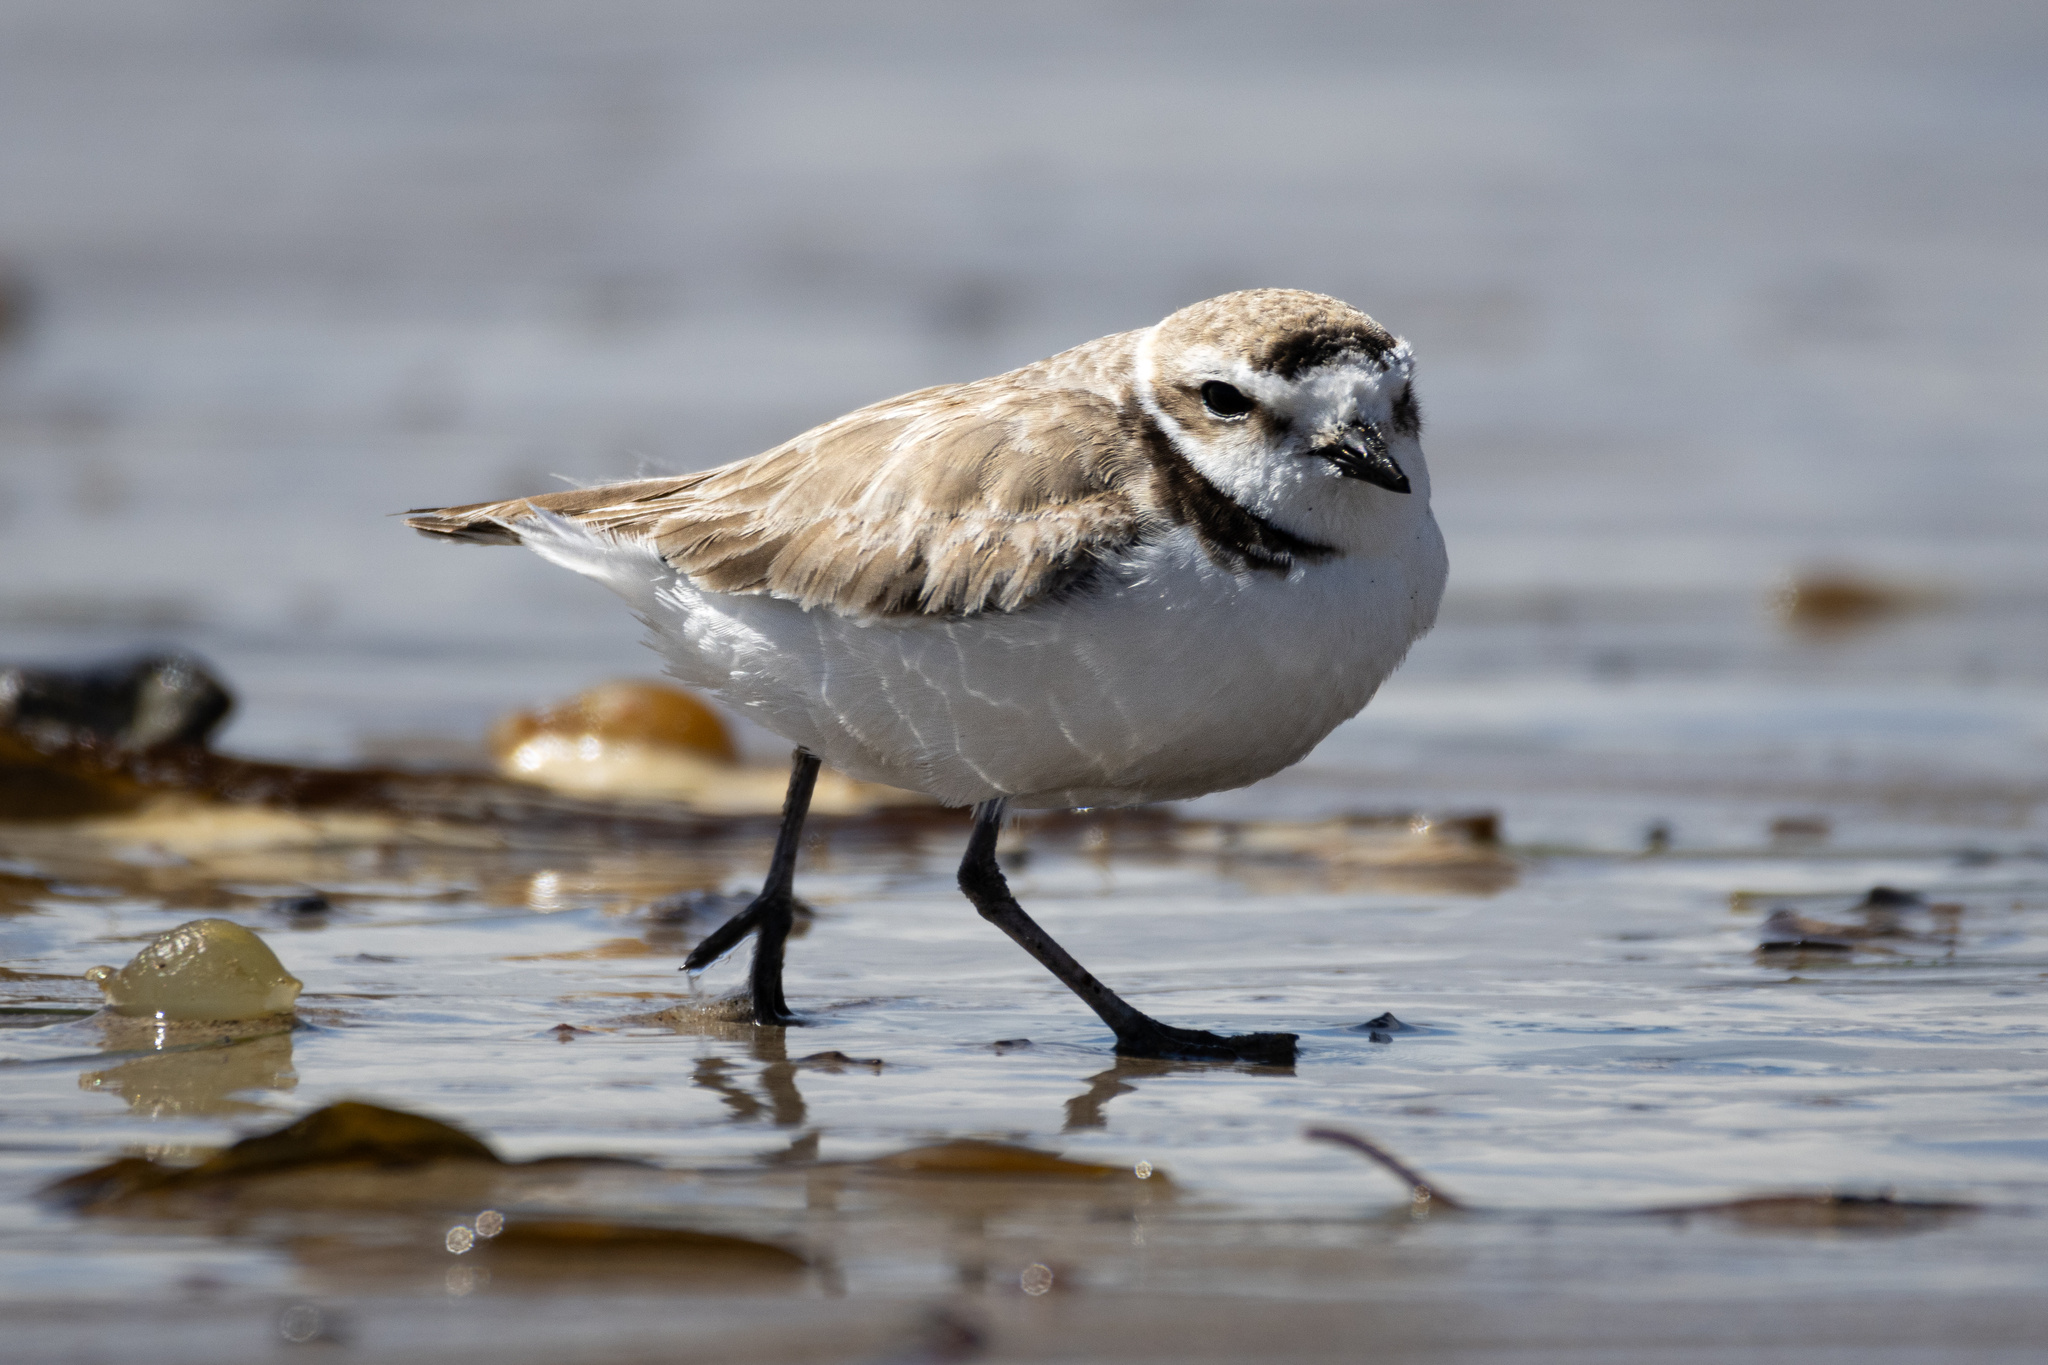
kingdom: Animalia
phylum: Chordata
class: Aves
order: Charadriiformes
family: Charadriidae
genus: Anarhynchus
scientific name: Anarhynchus
